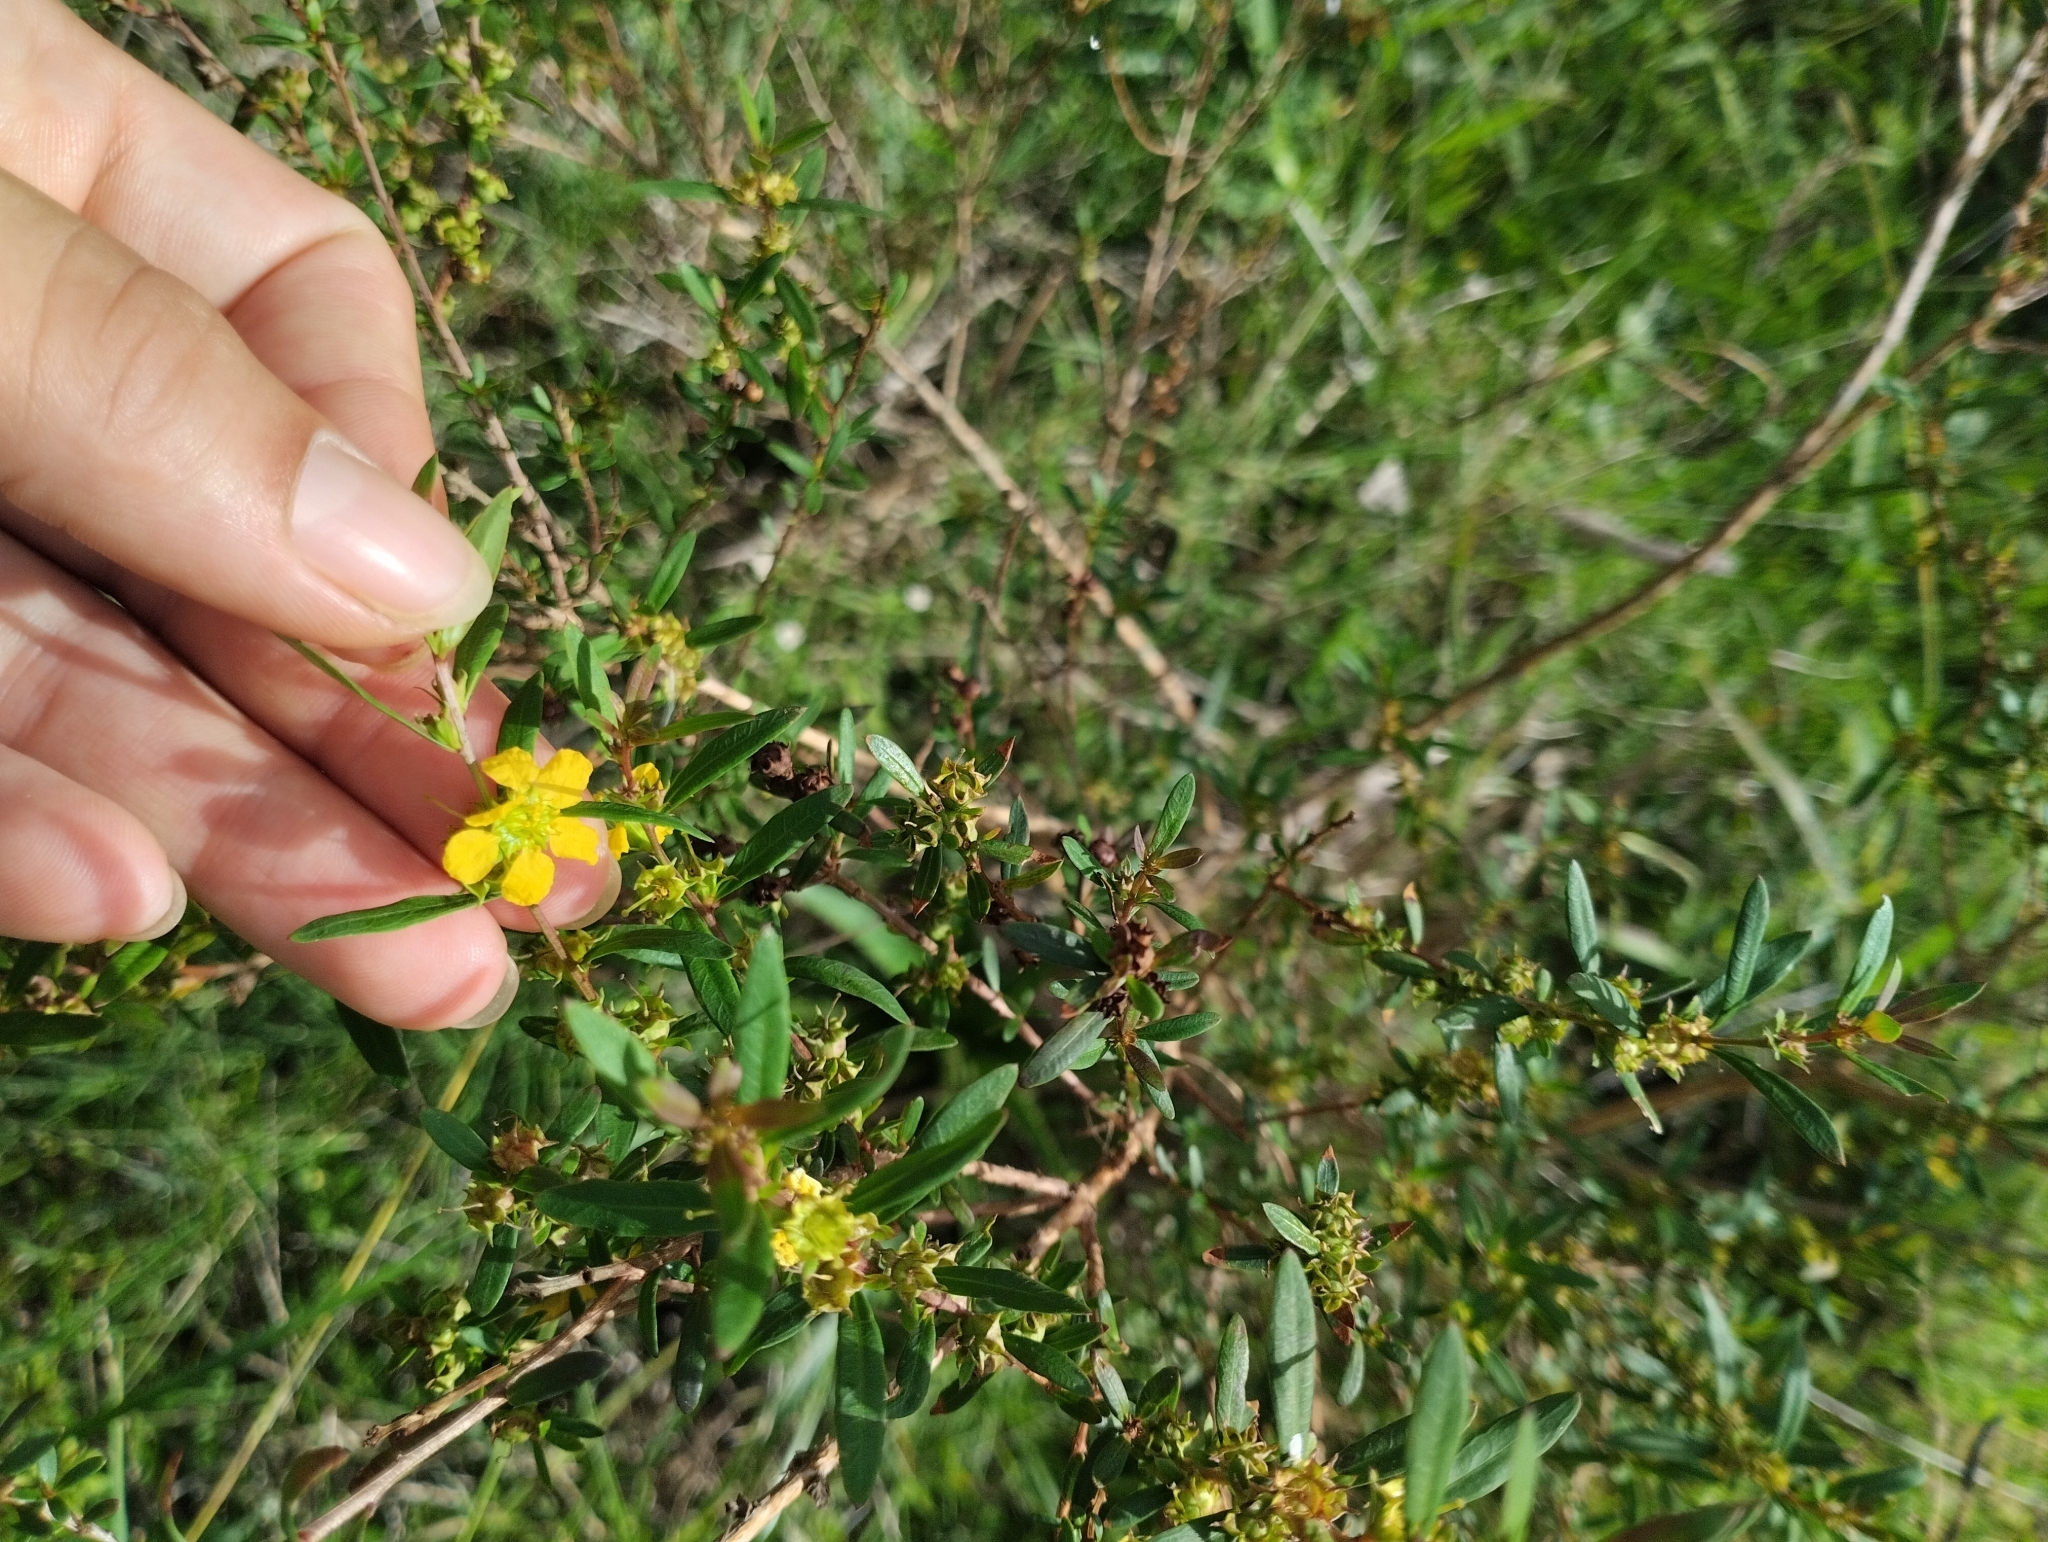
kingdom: Plantae
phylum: Tracheophyta
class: Magnoliopsida
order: Myrtales
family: Lythraceae
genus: Heimia
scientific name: Heimia apetala
